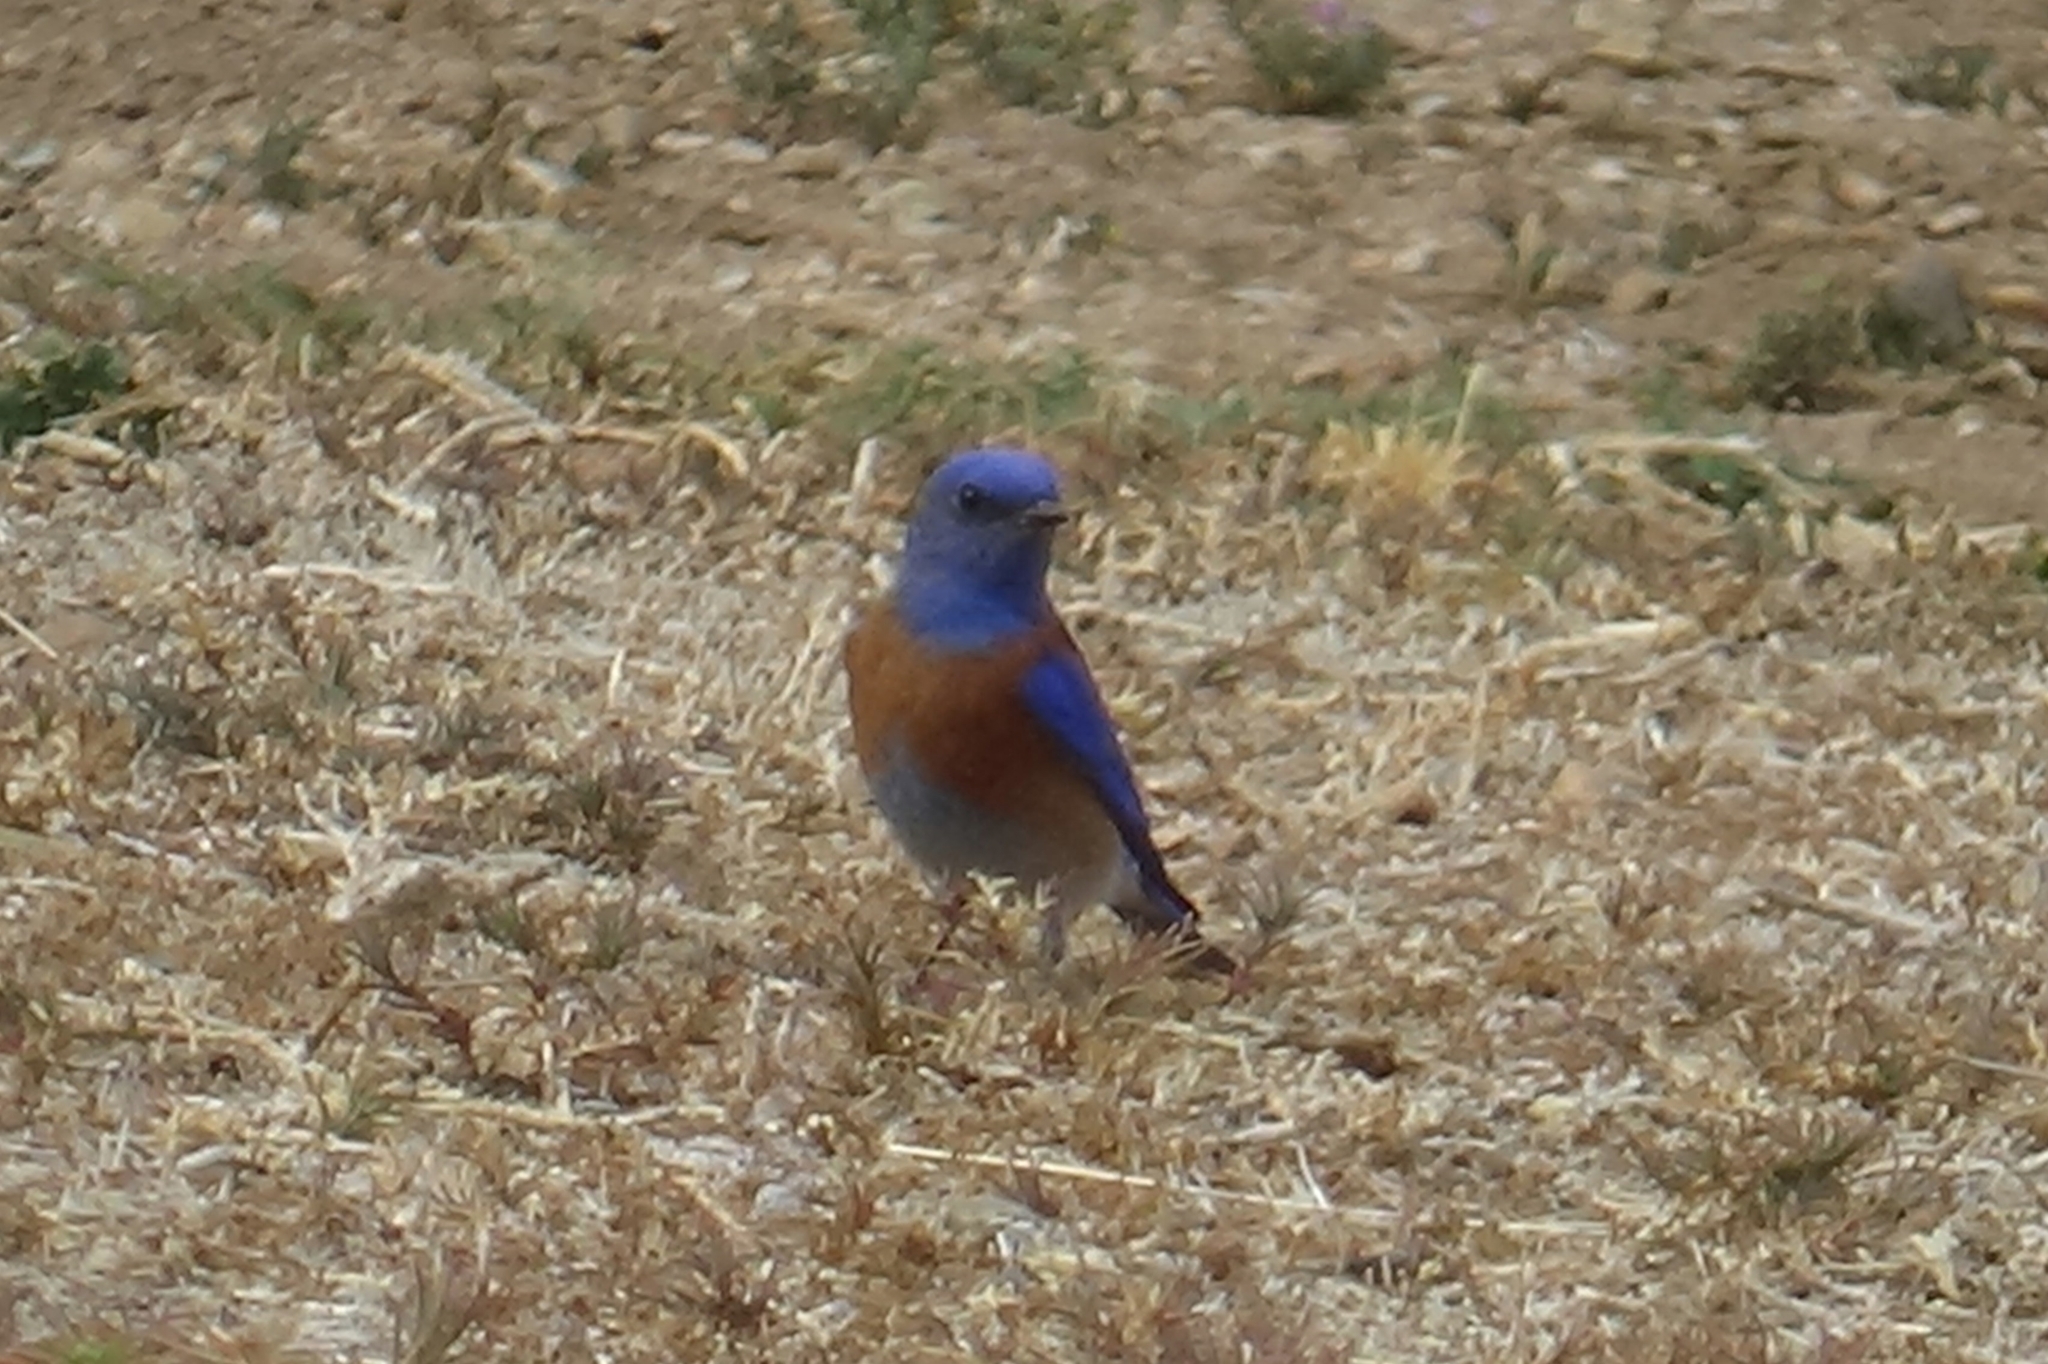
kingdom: Animalia
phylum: Chordata
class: Aves
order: Passeriformes
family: Turdidae
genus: Sialia
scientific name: Sialia mexicana
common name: Western bluebird
